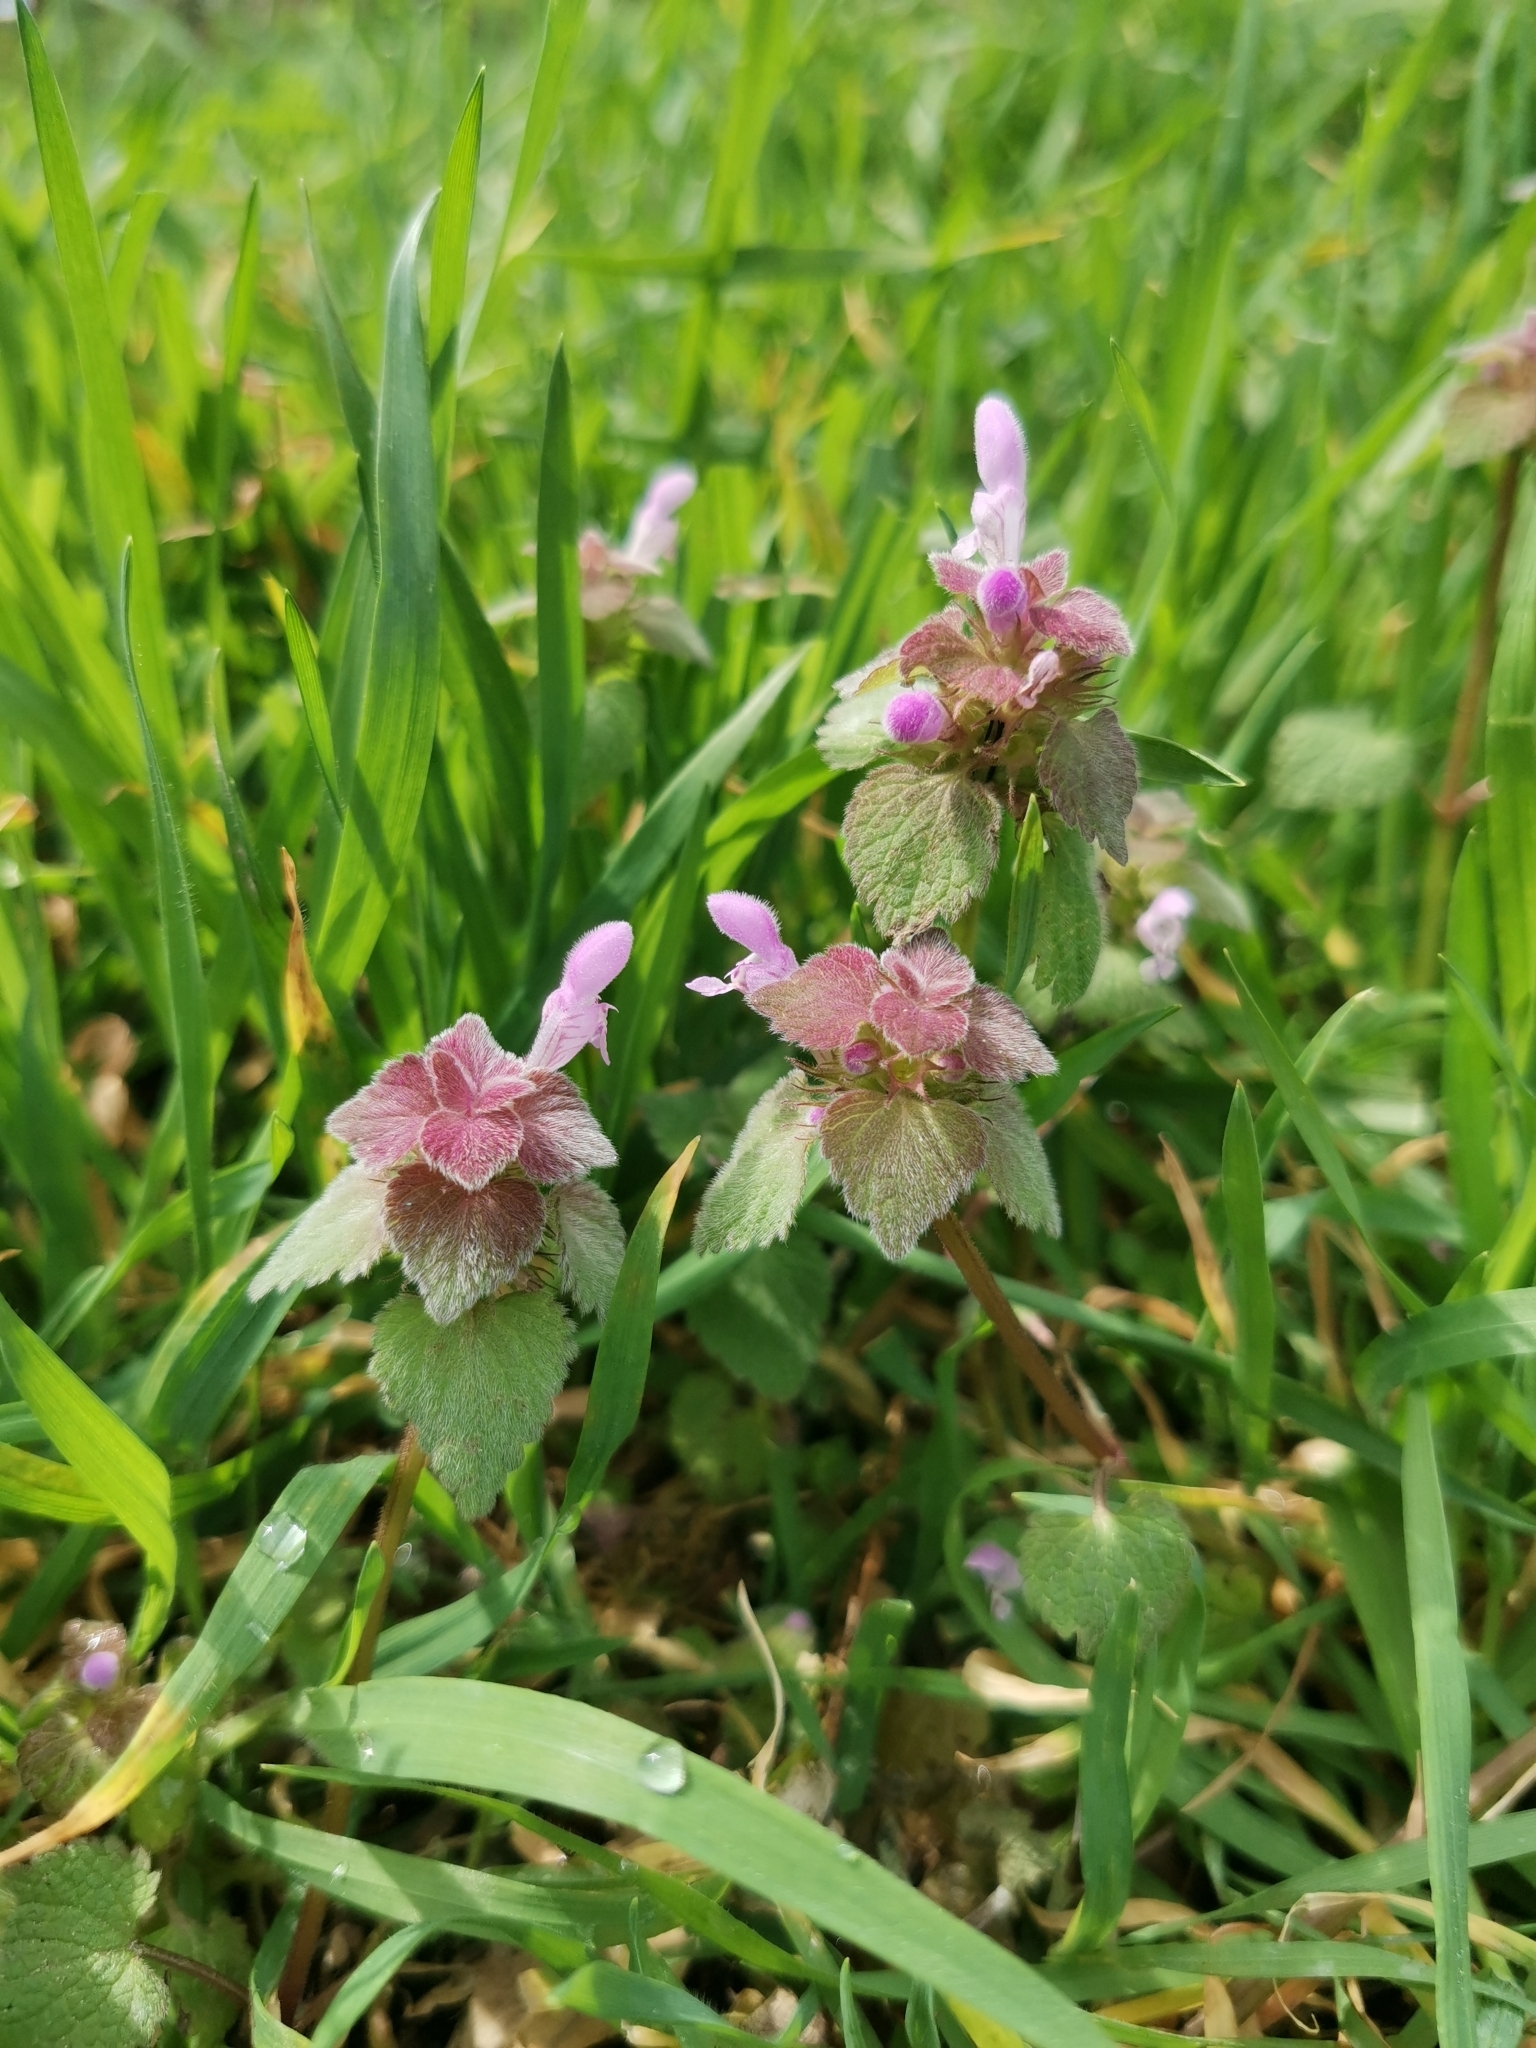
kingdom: Plantae
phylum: Tracheophyta
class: Magnoliopsida
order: Lamiales
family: Lamiaceae
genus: Lamium
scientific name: Lamium purpureum
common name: Red dead-nettle
